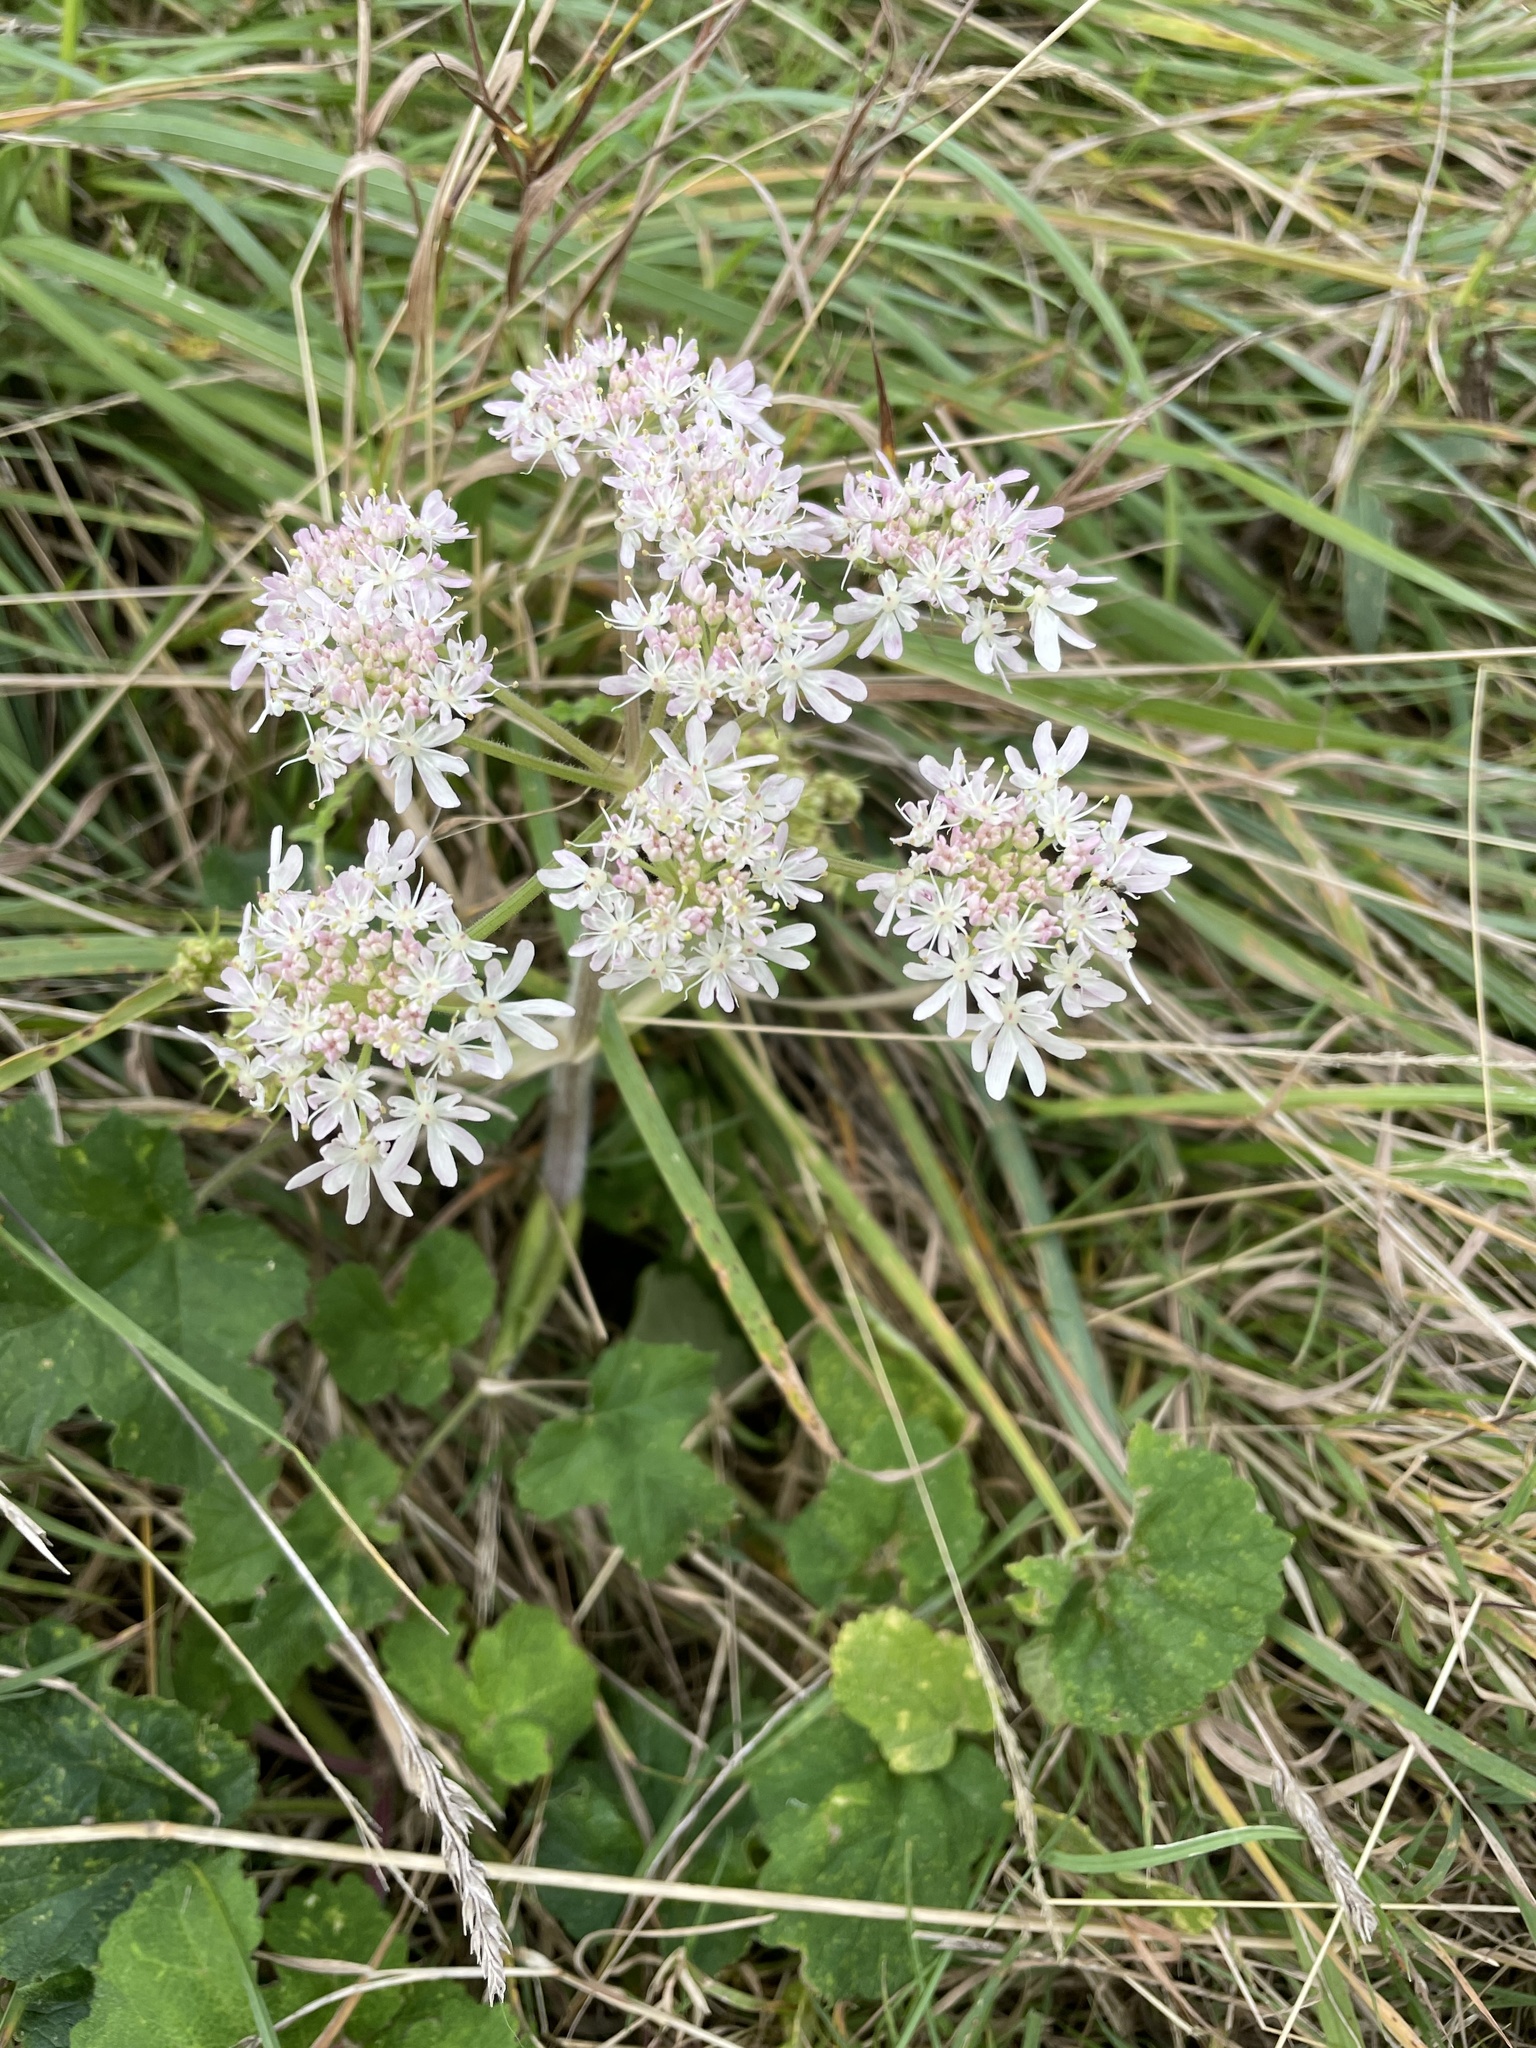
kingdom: Plantae
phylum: Tracheophyta
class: Magnoliopsida
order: Apiales
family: Apiaceae
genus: Heracleum
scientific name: Heracleum sphondylium
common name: Hogweed
